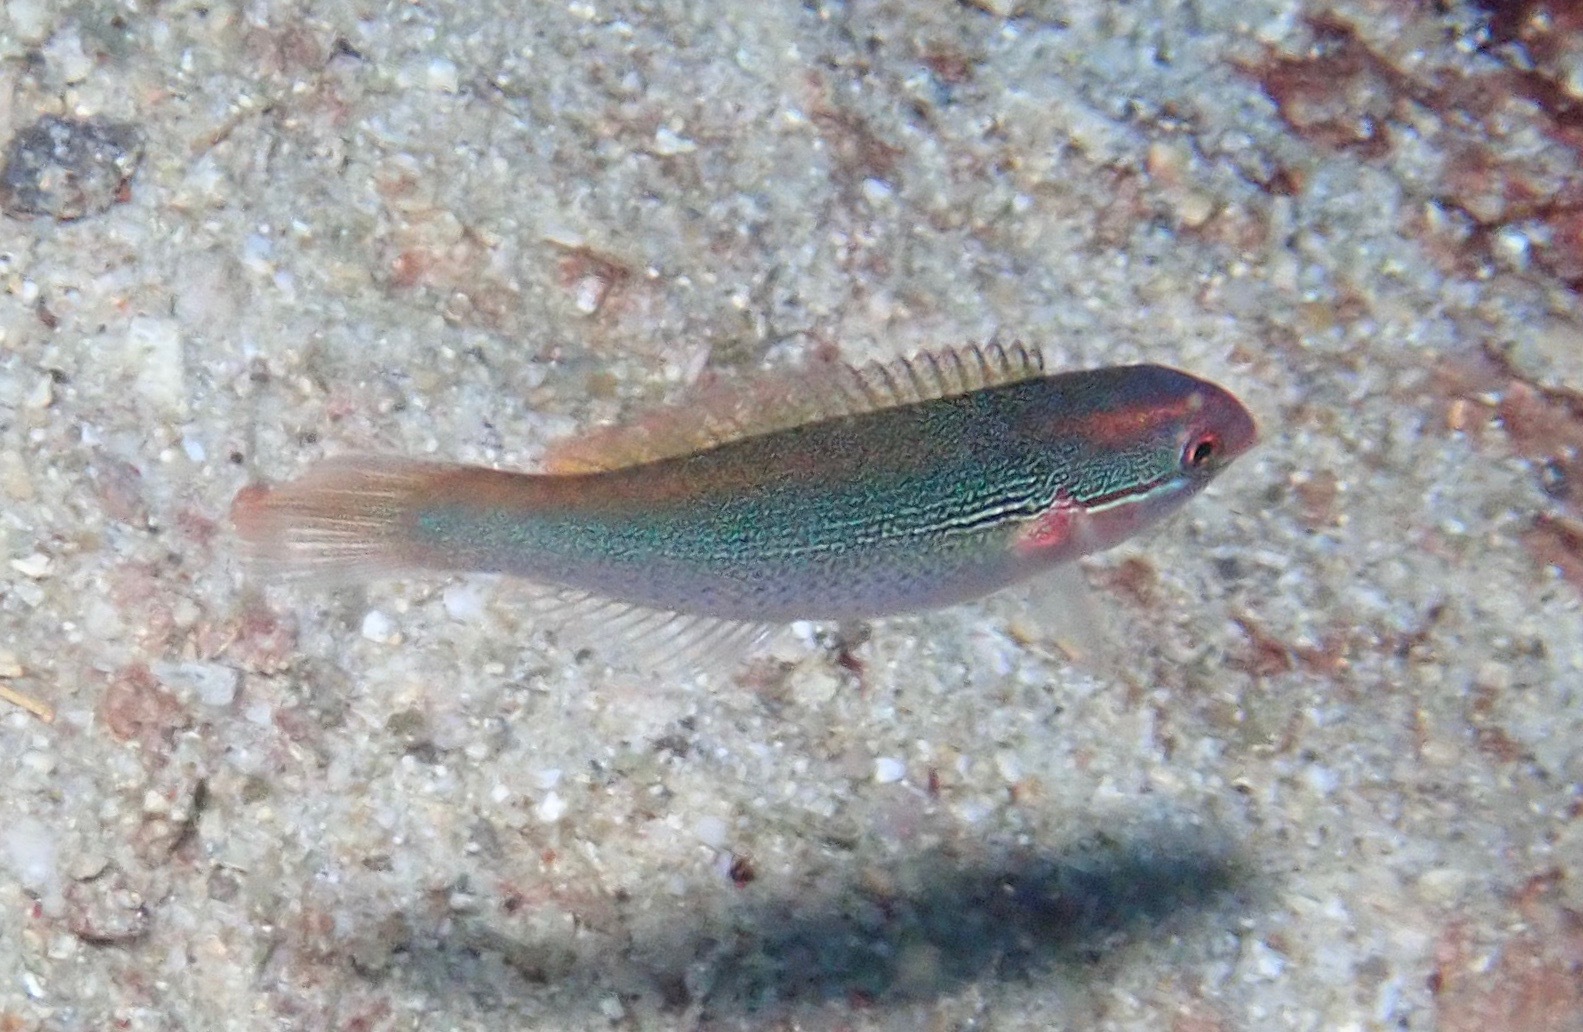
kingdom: Animalia
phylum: Chordata
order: Perciformes
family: Labridae
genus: Stethojulis
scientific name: Stethojulis interrupta
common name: Cutribbon wrasse
